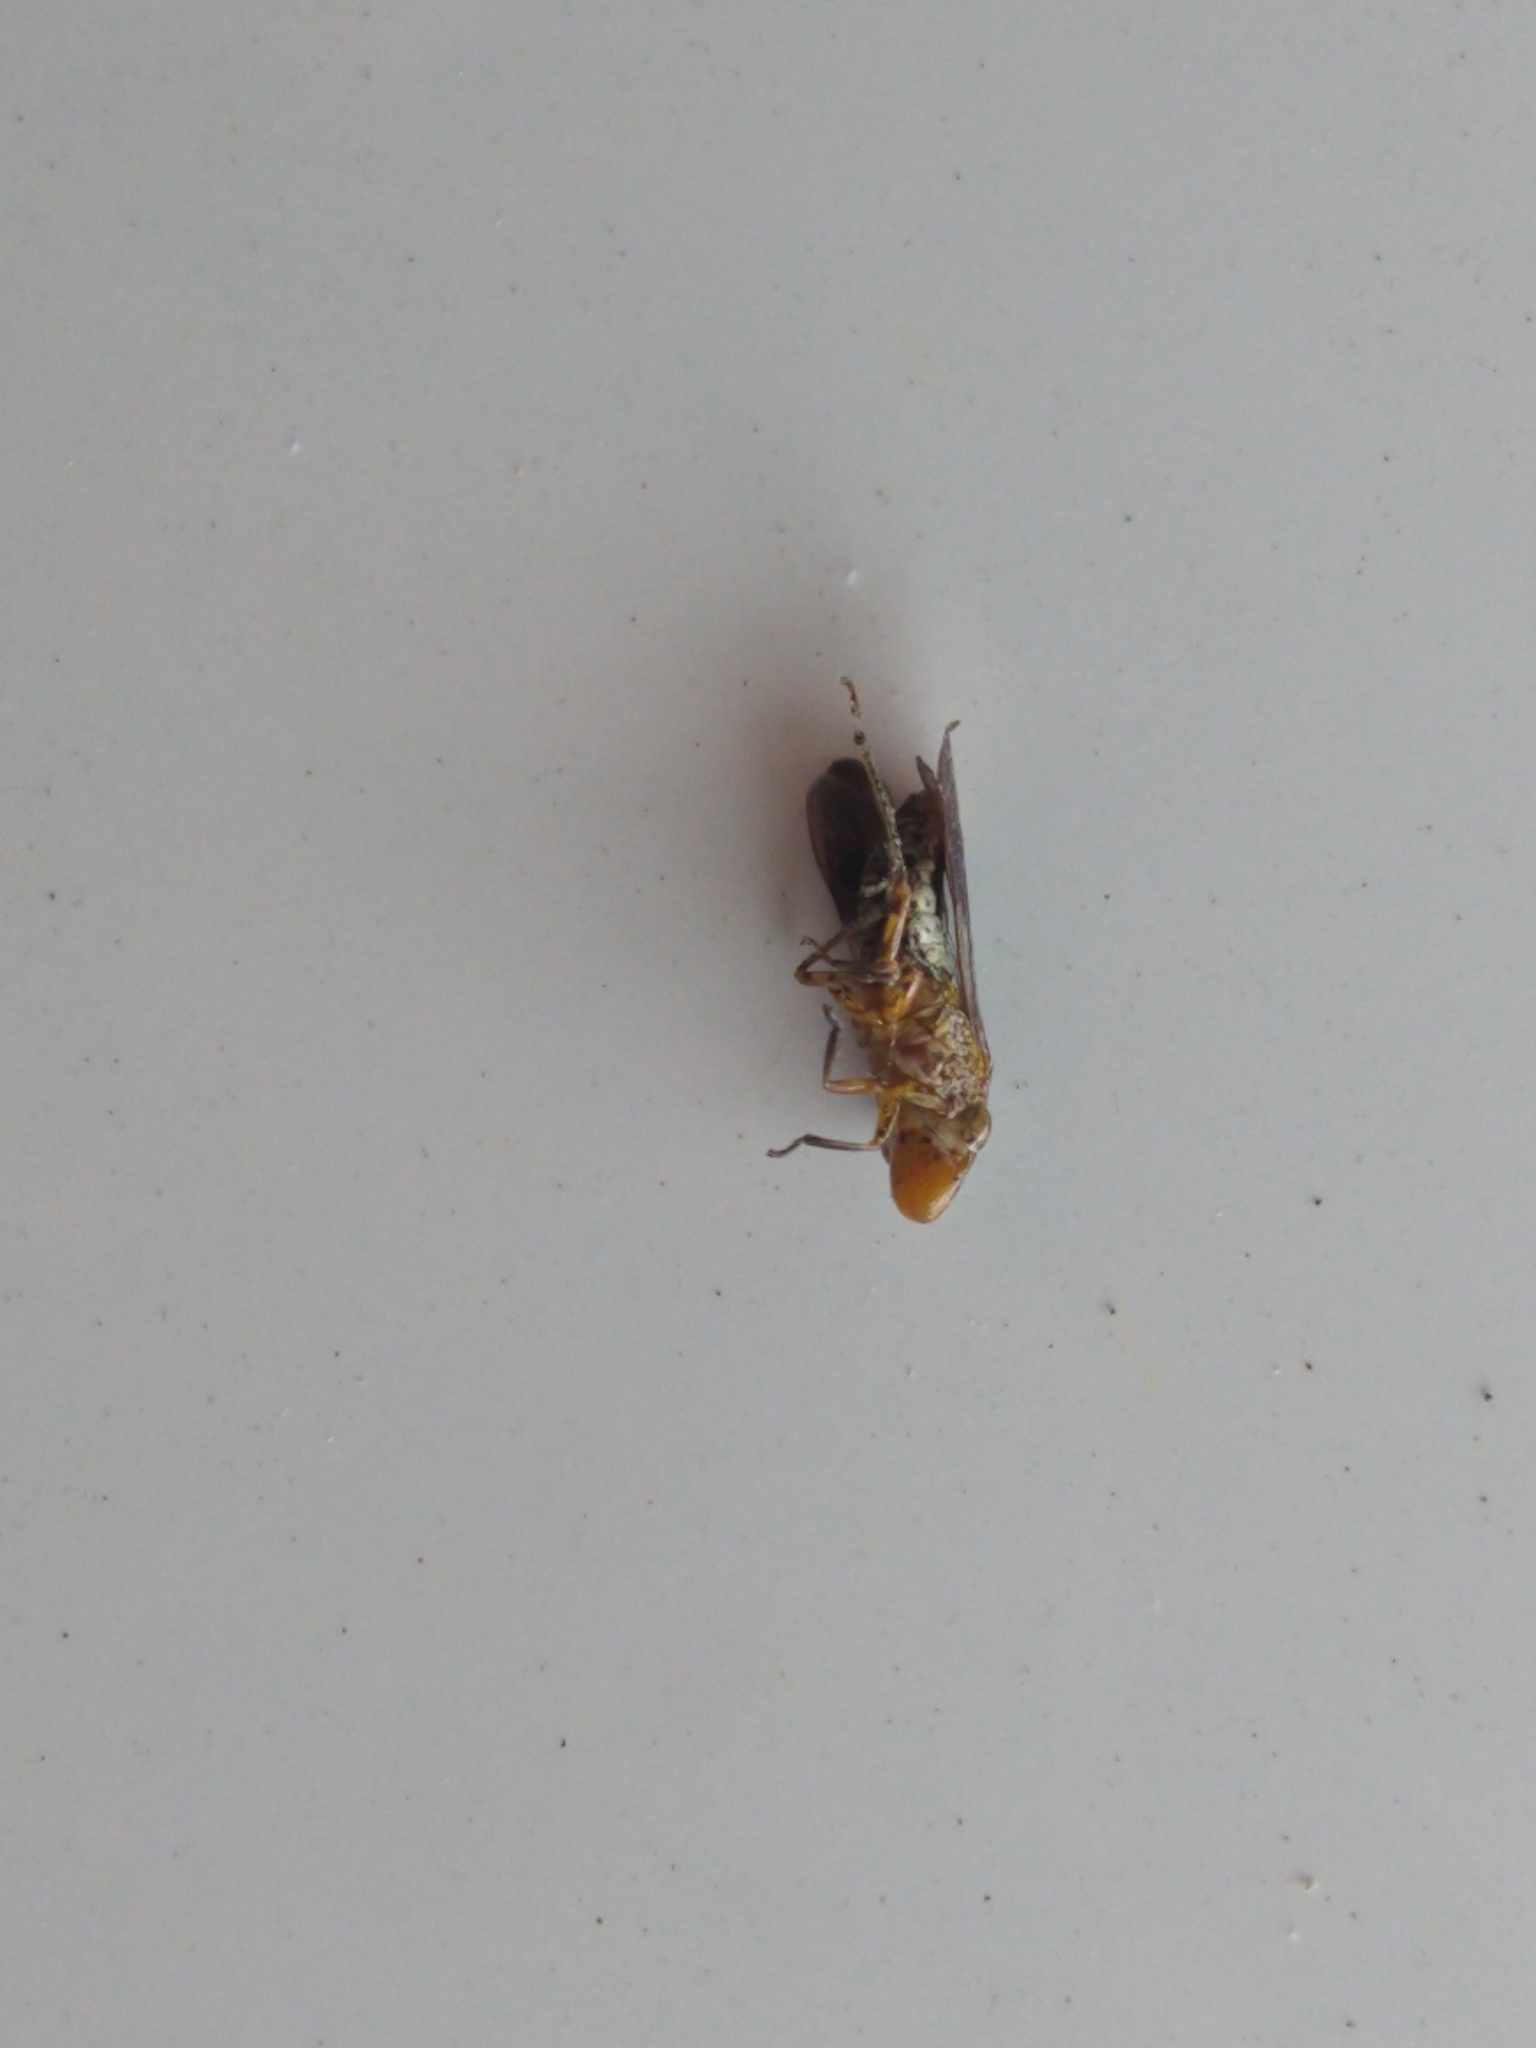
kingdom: Animalia
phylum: Arthropoda
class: Insecta
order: Hemiptera
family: Cicadellidae
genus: Homalodisca
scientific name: Homalodisca vitripennis
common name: Glassy-winged sharpshooter
